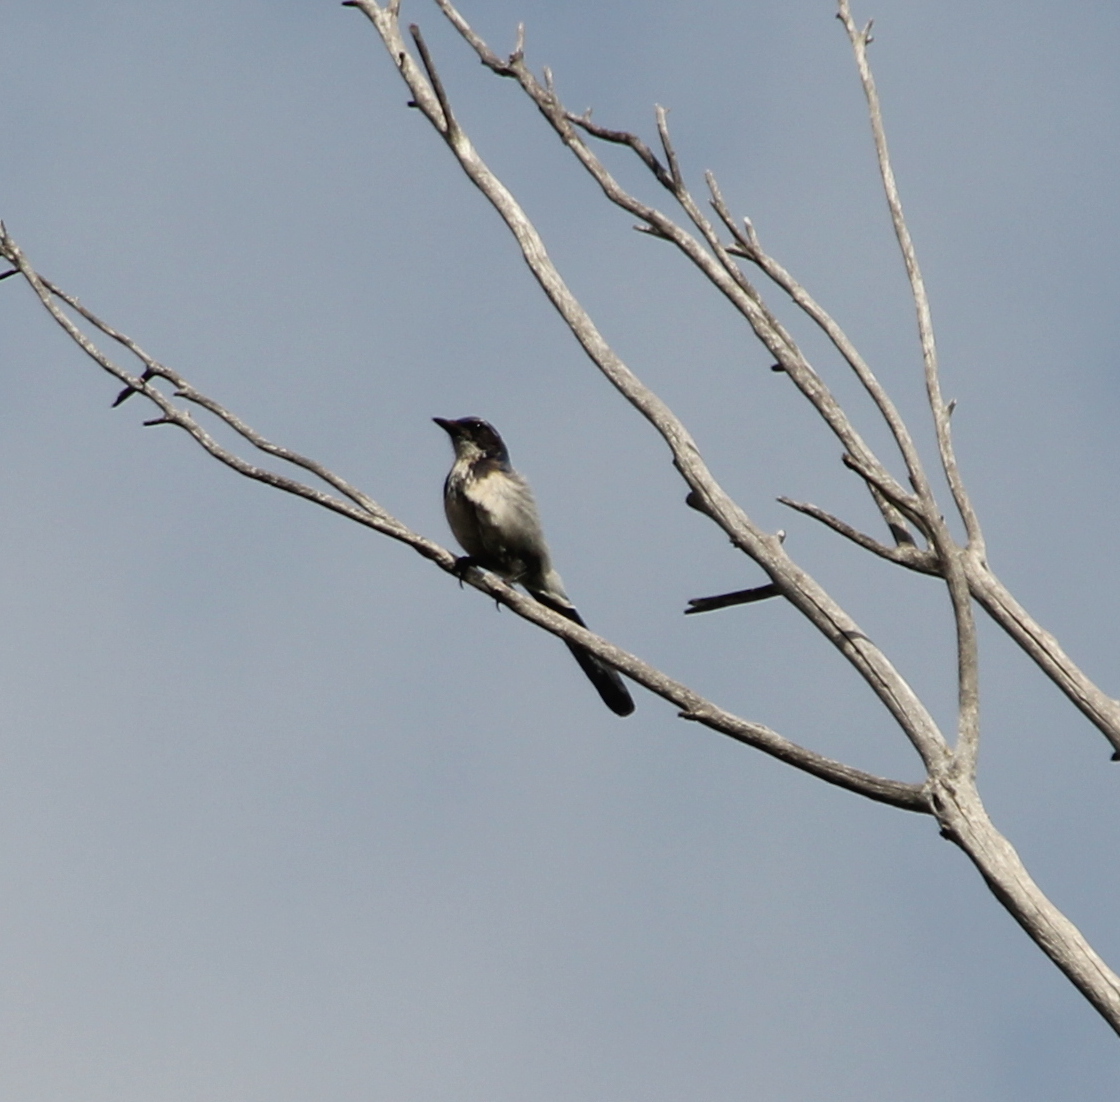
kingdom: Animalia
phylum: Chordata
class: Aves
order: Passeriformes
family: Corvidae
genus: Aphelocoma
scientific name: Aphelocoma californica
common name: California scrub-jay
